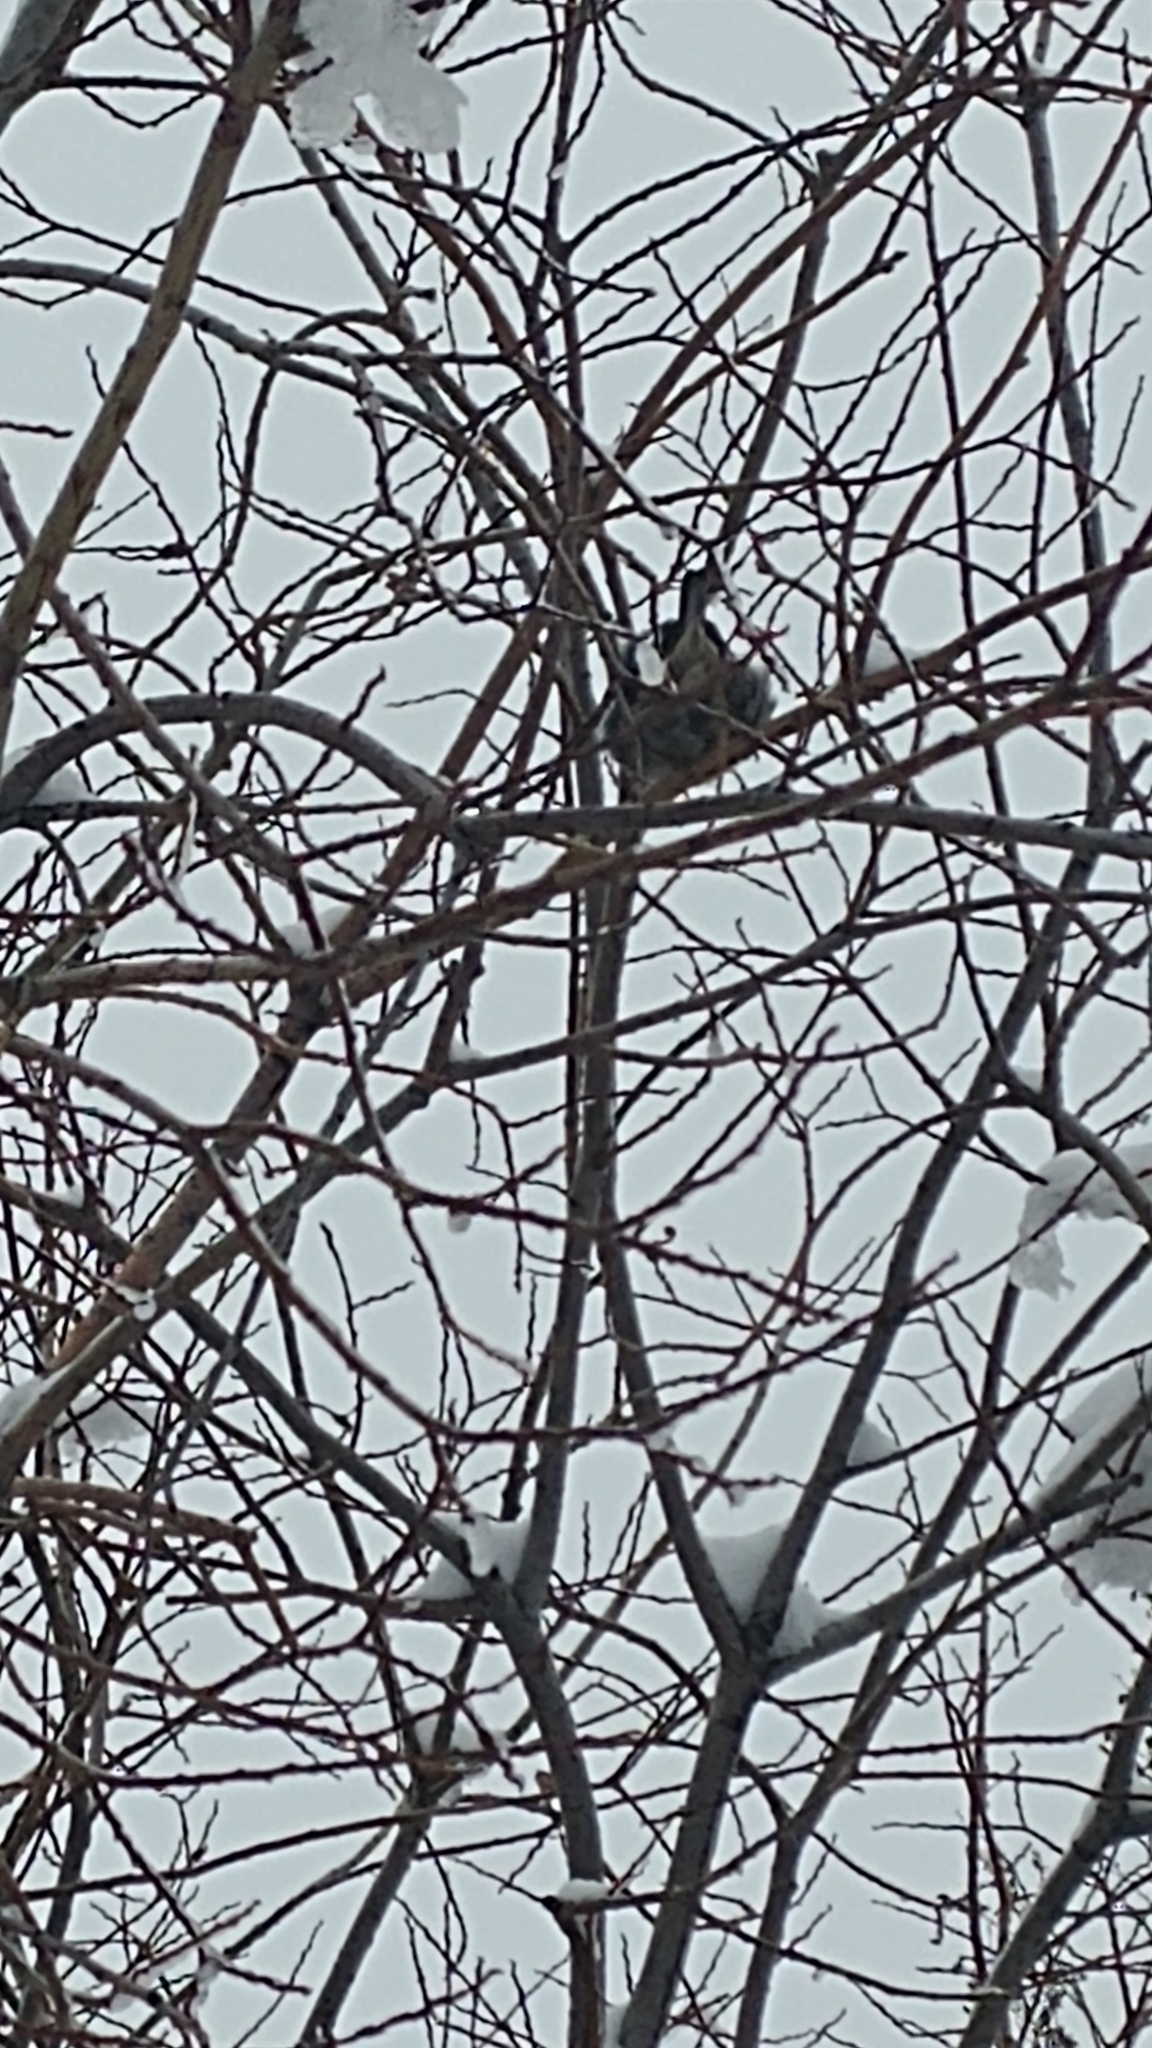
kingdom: Animalia
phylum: Chordata
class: Aves
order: Passeriformes
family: Passeridae
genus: Passer
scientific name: Passer domesticus
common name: House sparrow
